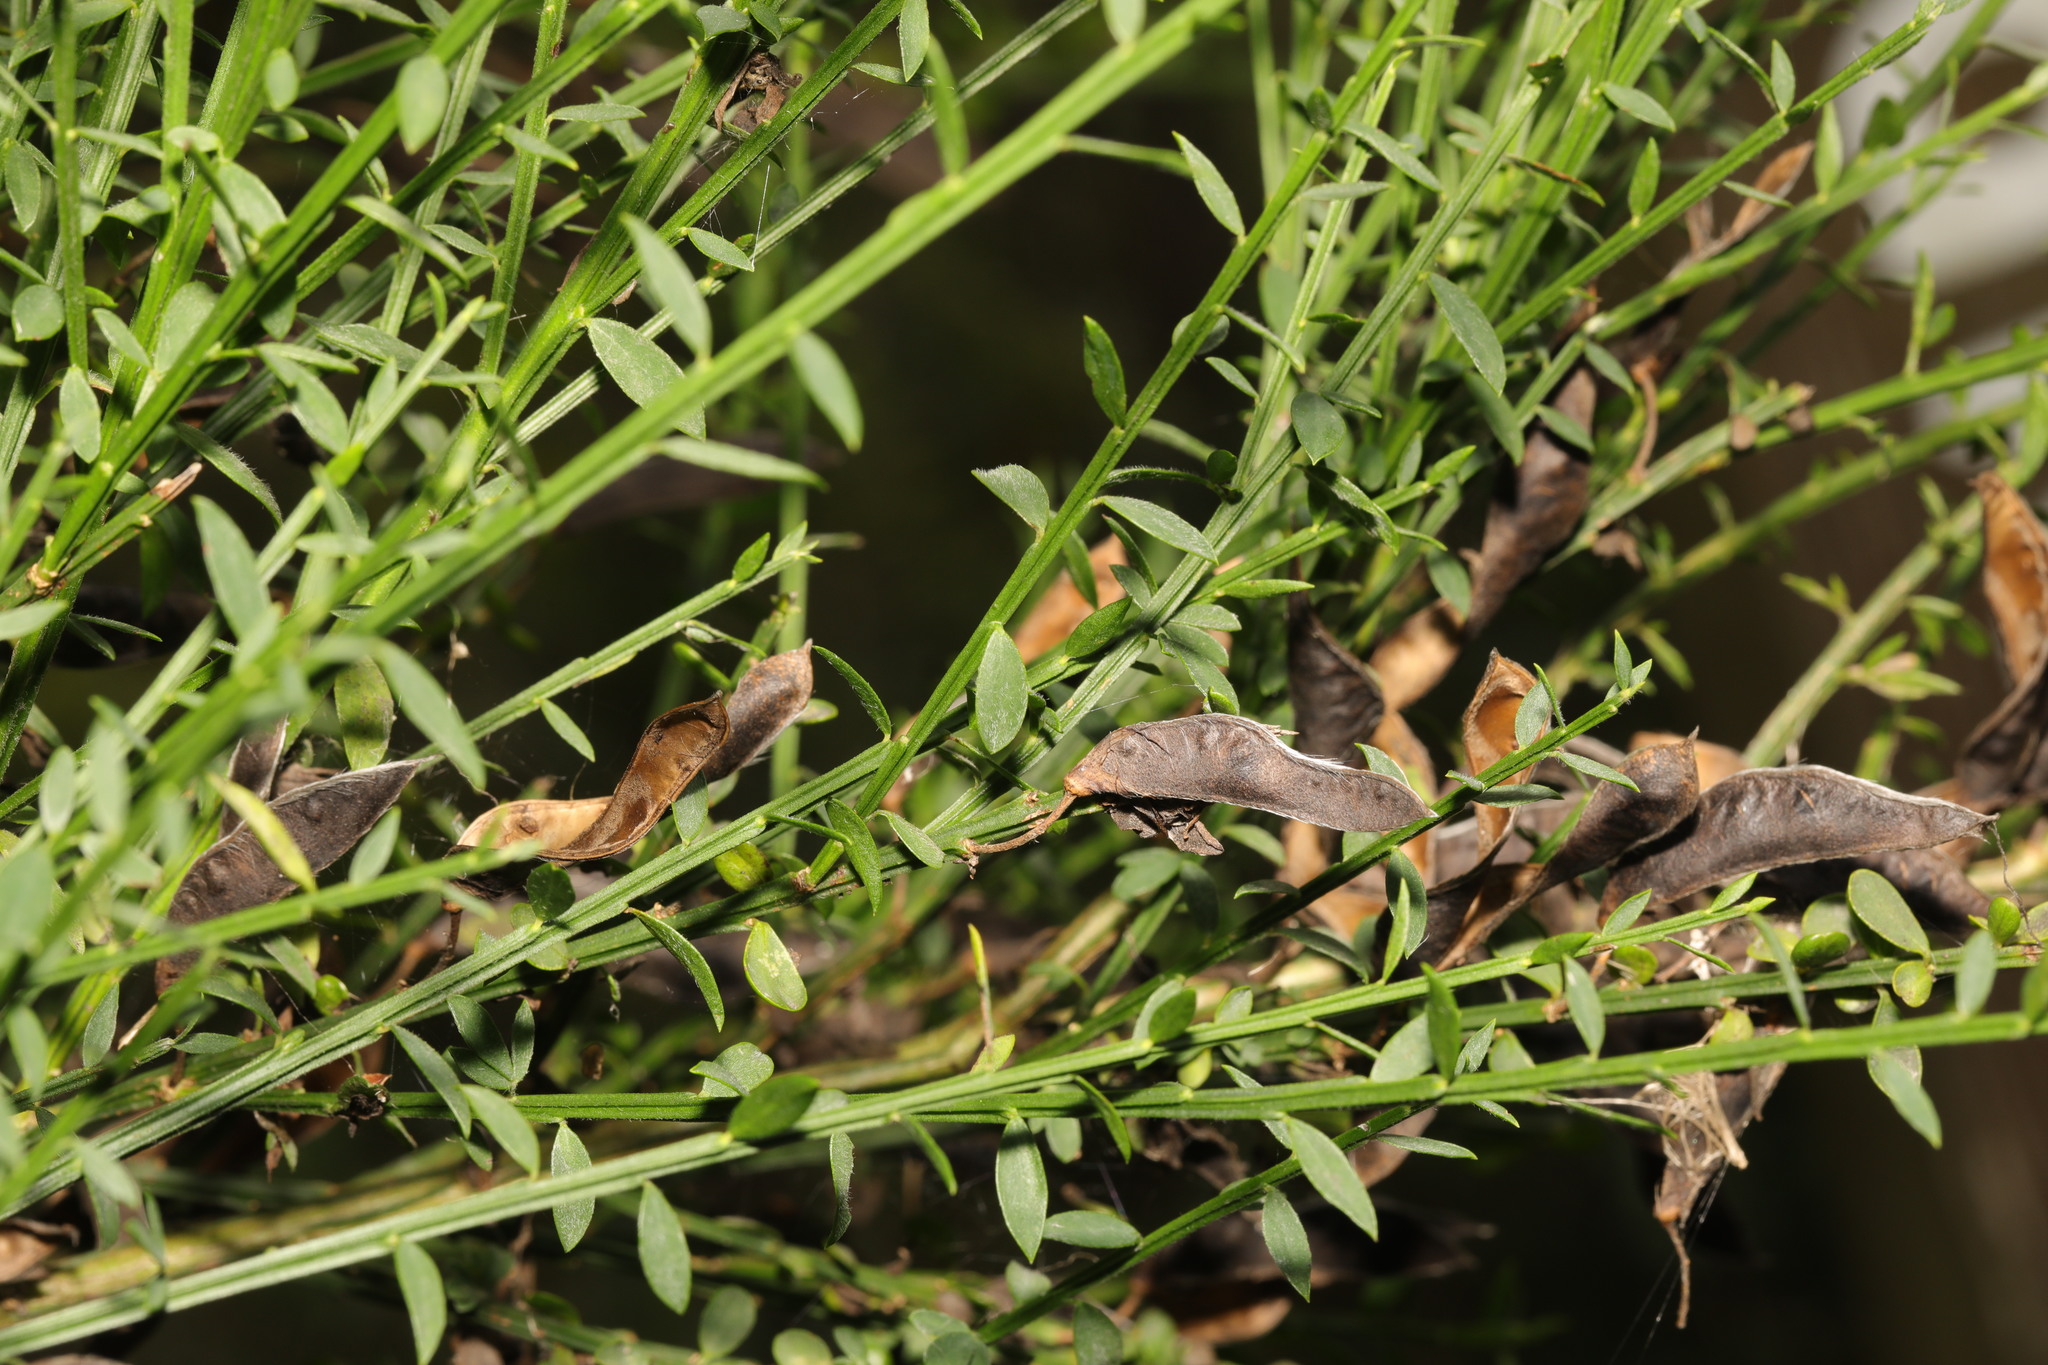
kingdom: Plantae
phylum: Tracheophyta
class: Magnoliopsida
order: Fabales
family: Fabaceae
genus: Cytisus
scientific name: Cytisus scoparius
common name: Scotch broom
